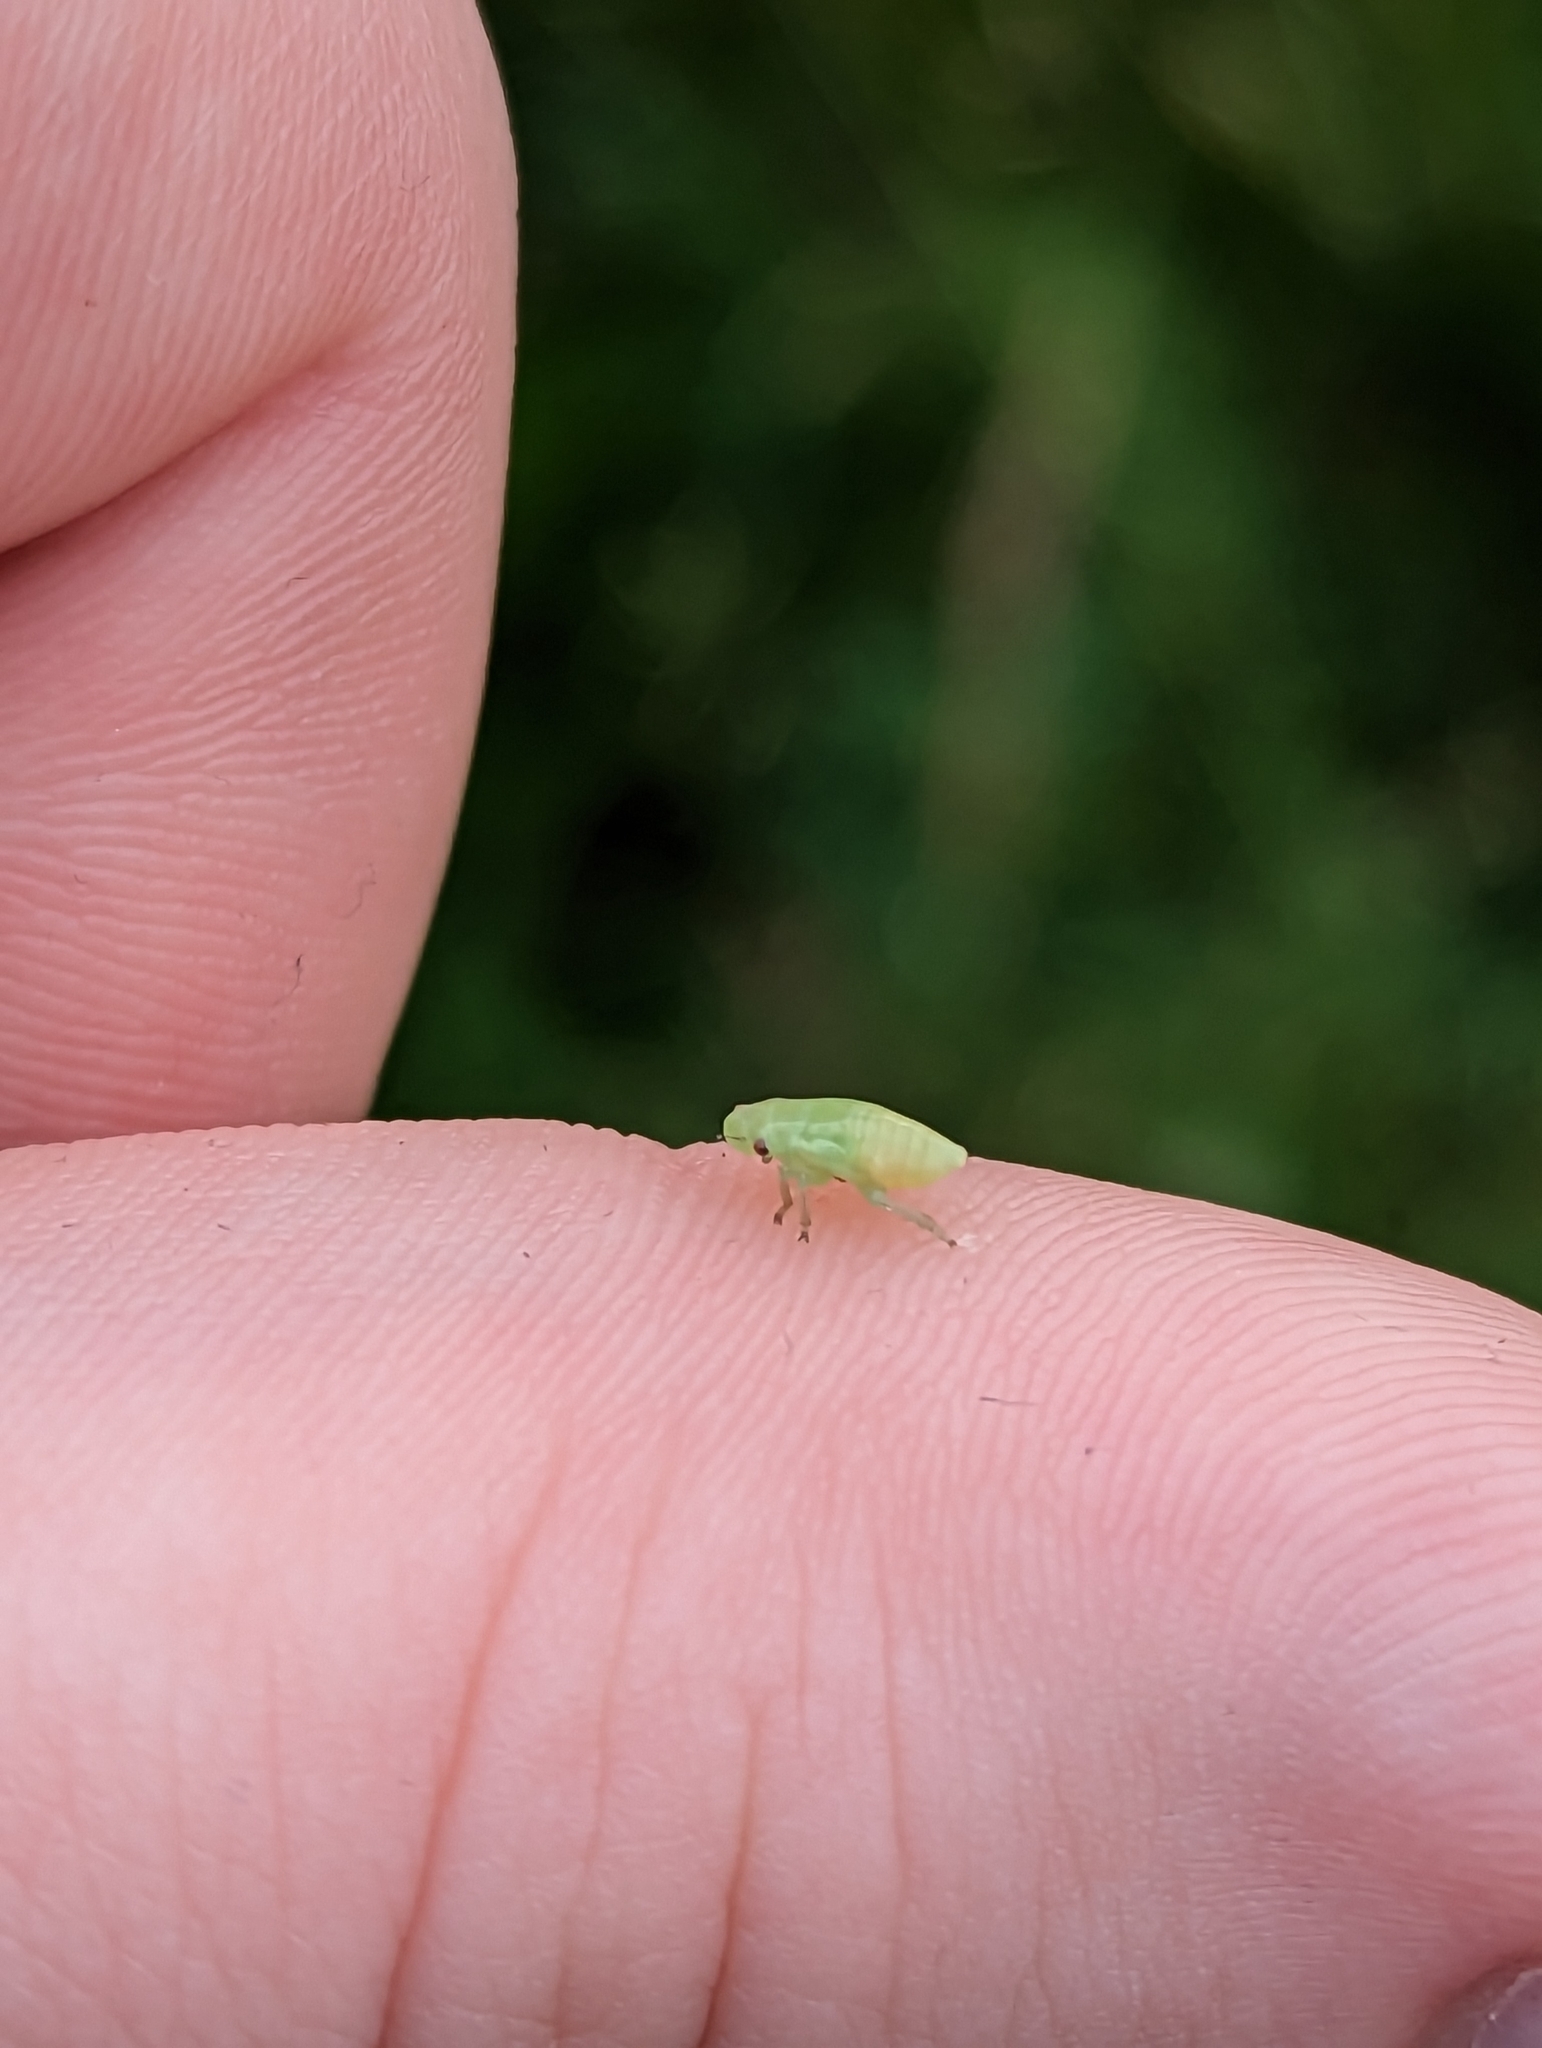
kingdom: Animalia
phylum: Arthropoda
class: Insecta
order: Hemiptera
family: Aphrophoridae
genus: Philaenus
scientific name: Philaenus spumarius
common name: Meadow spittlebug
